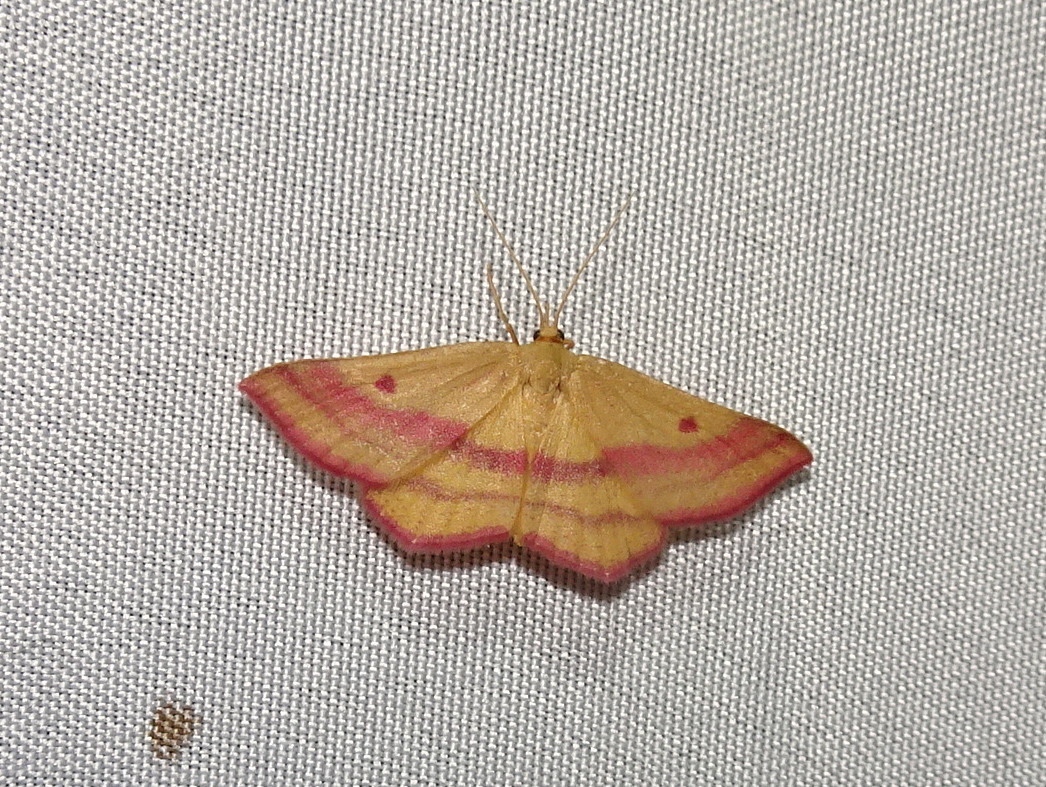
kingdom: Animalia
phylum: Arthropoda
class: Insecta
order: Lepidoptera
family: Geometridae
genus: Haematopis
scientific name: Haematopis grataria
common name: Chickweed geometer
